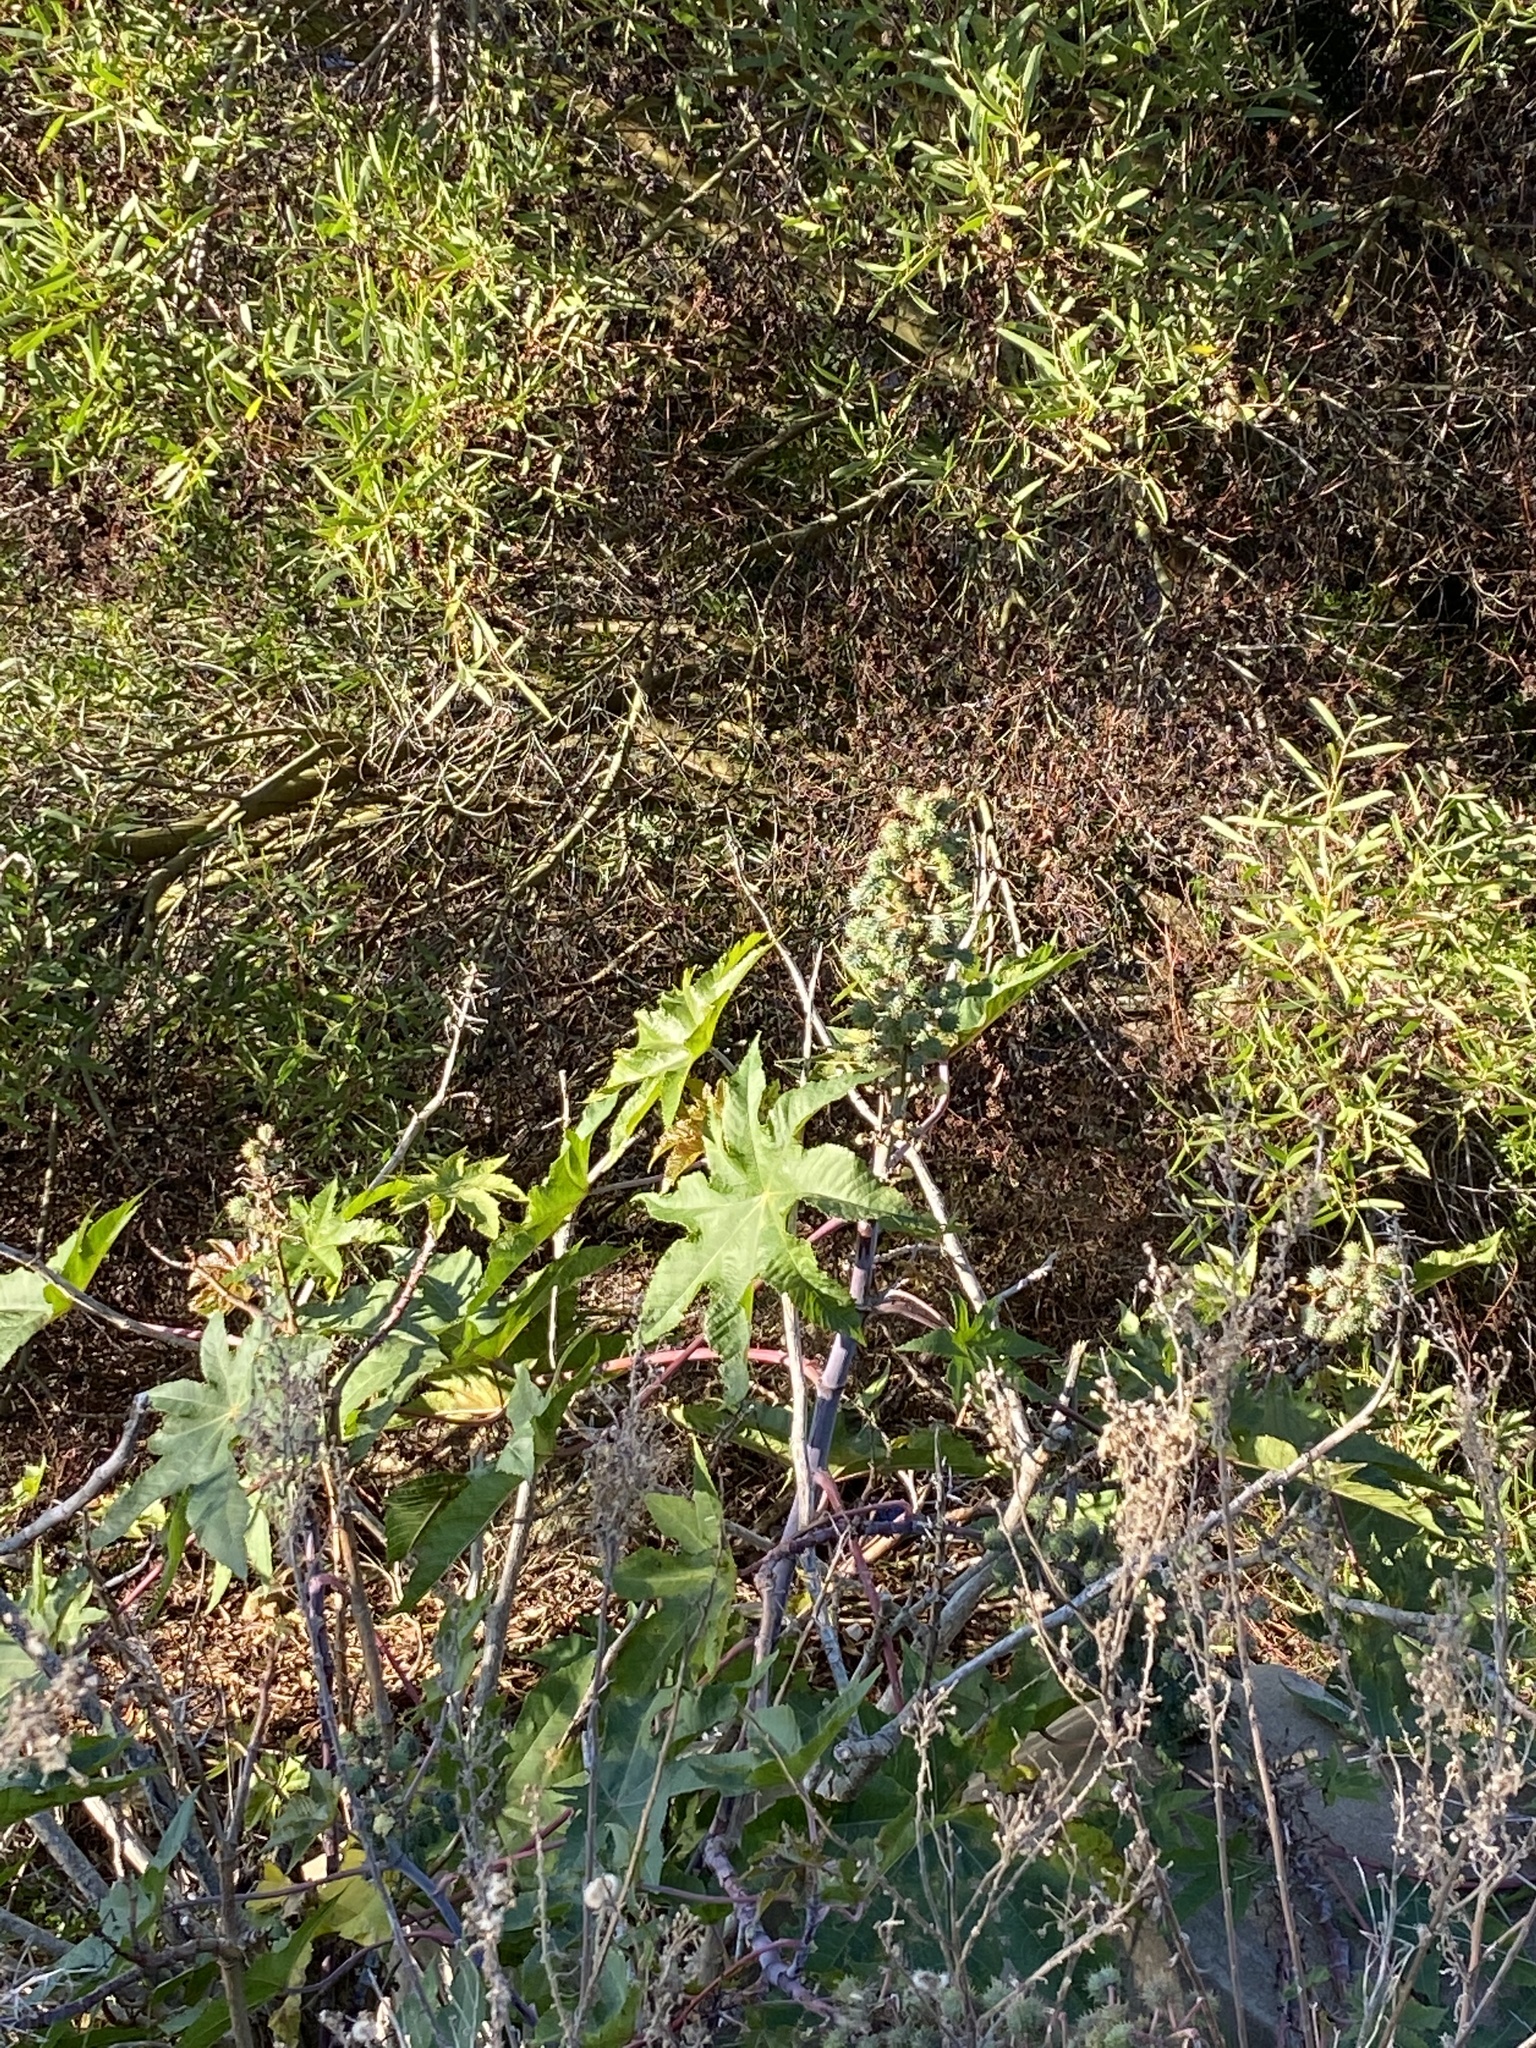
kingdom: Plantae
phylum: Tracheophyta
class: Magnoliopsida
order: Malpighiales
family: Euphorbiaceae
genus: Ricinus
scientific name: Ricinus communis
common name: Castor-oil-plant
